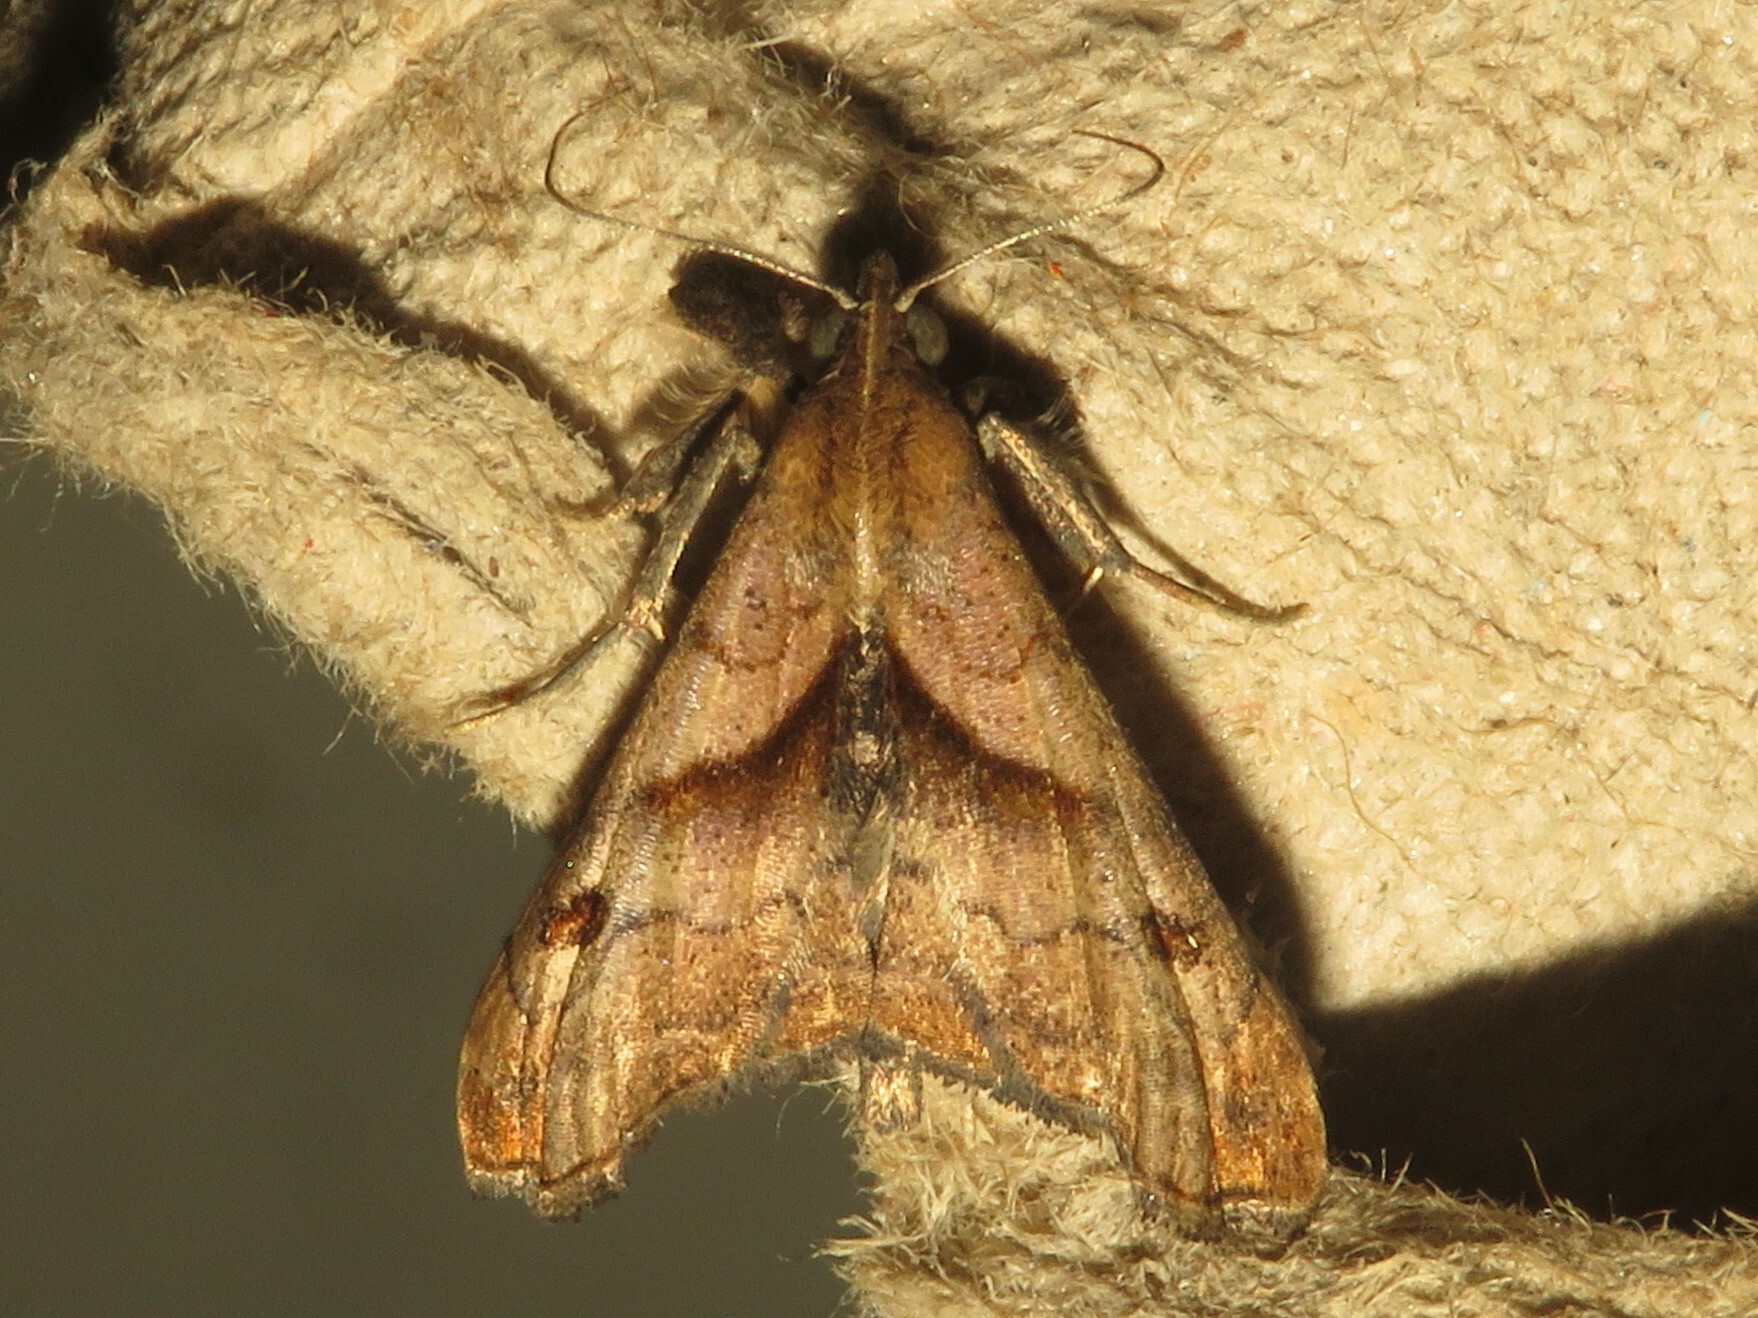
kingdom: Animalia
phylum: Arthropoda
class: Insecta
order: Lepidoptera
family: Erebidae
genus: Palthis
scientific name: Palthis angulalis
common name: Dark-spotted palthis moth
